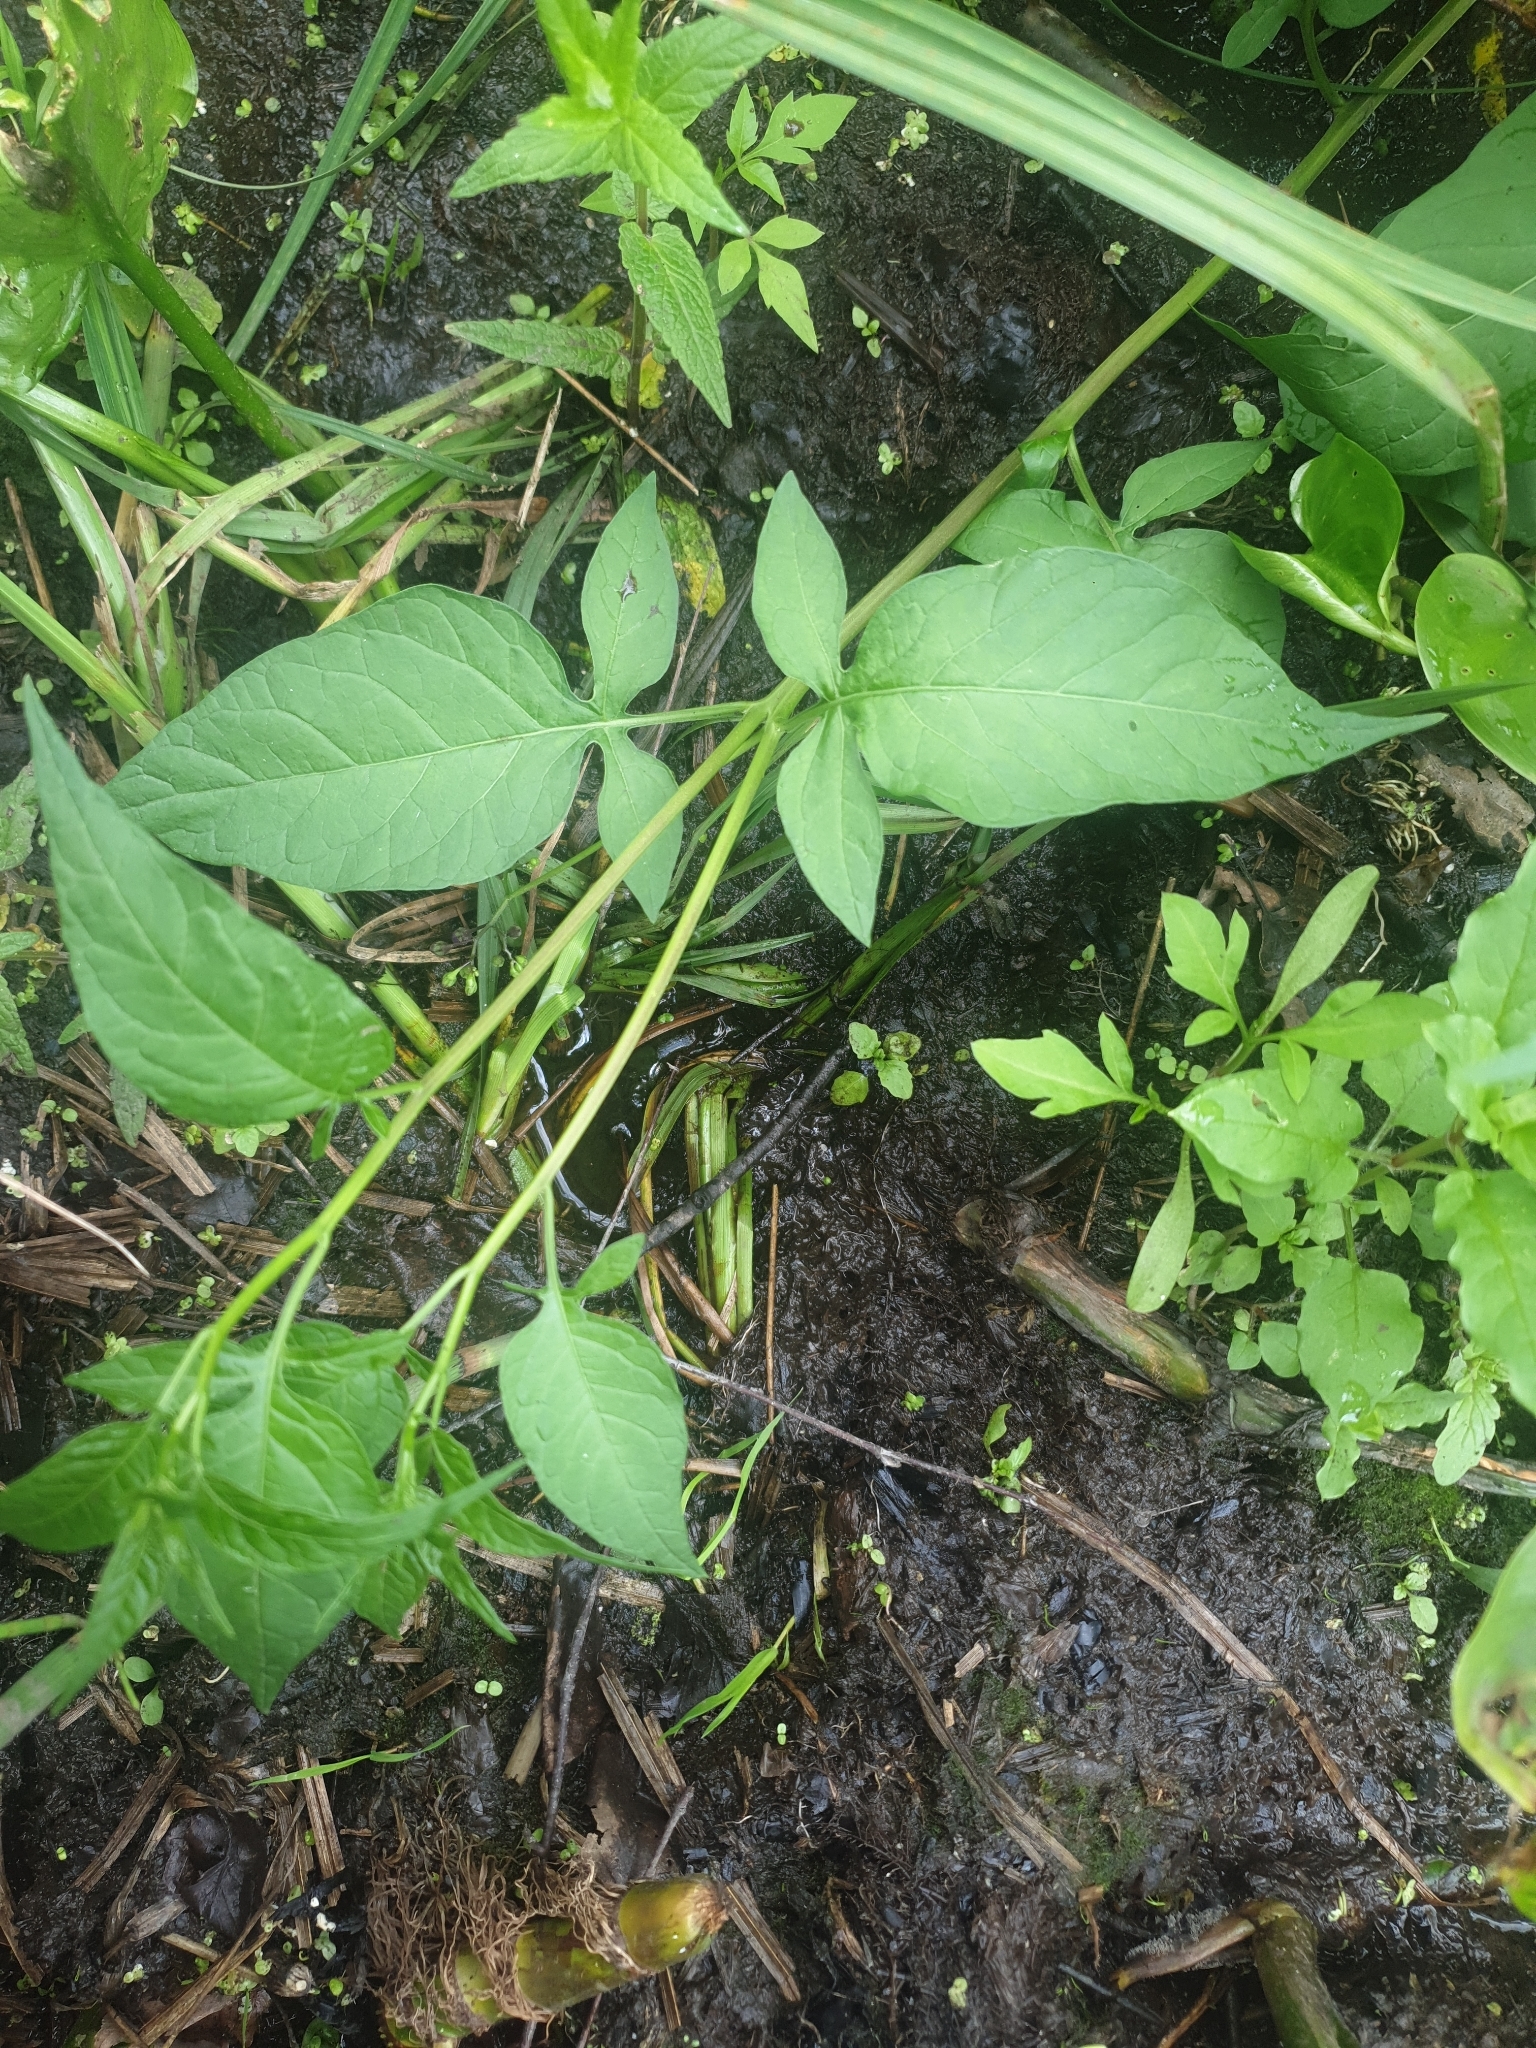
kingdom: Plantae
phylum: Tracheophyta
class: Magnoliopsida
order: Solanales
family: Solanaceae
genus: Solanum
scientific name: Solanum dulcamara
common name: Climbing nightshade
